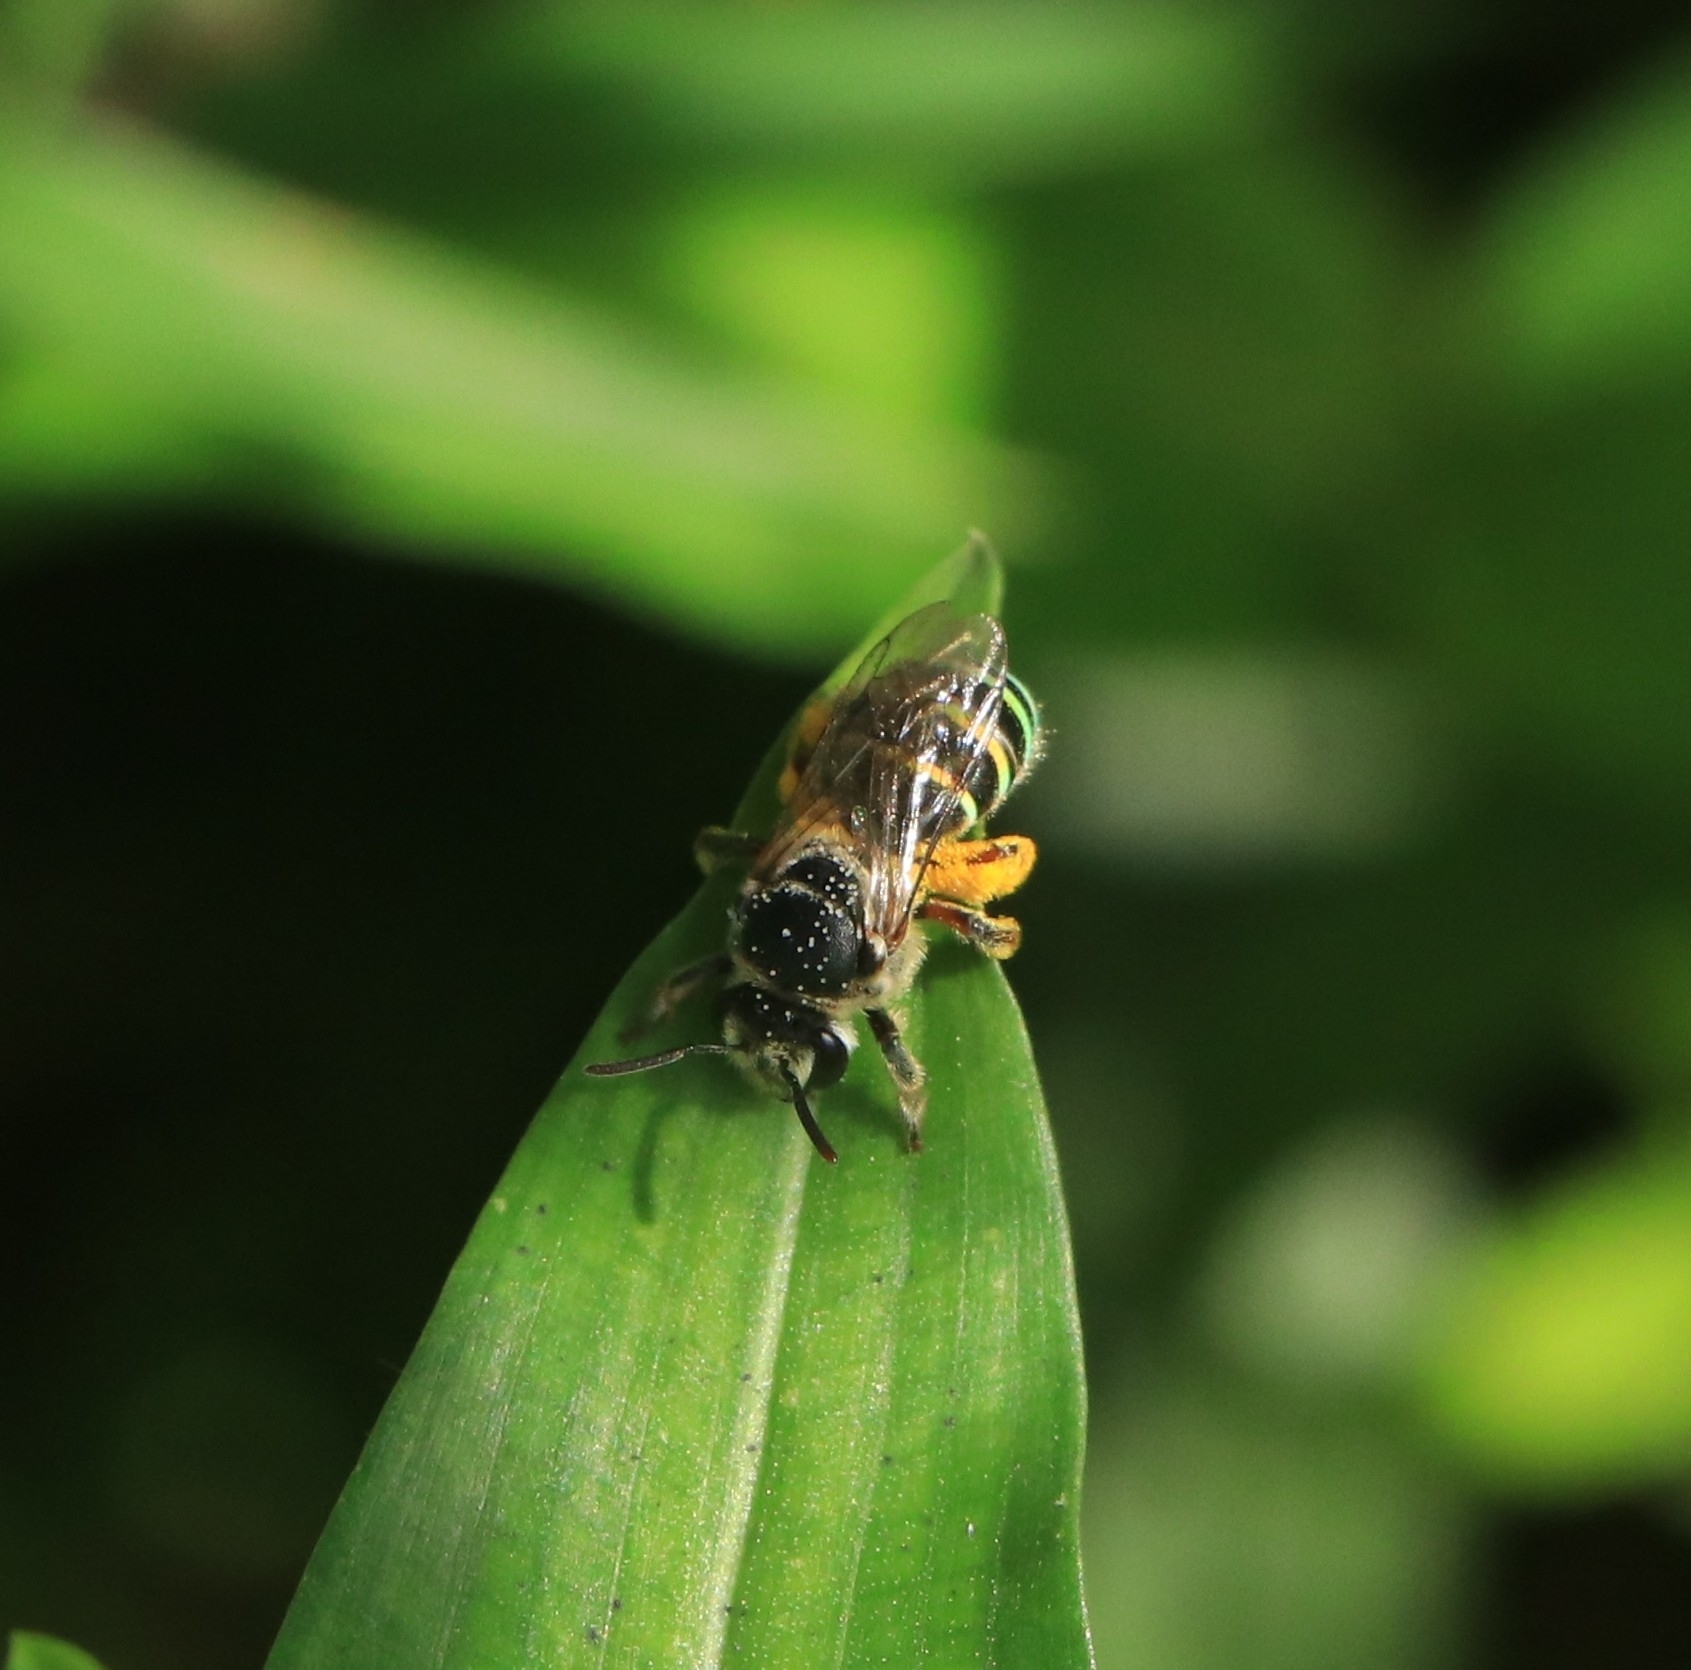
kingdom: Animalia
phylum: Arthropoda
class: Insecta
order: Hymenoptera
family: Halictidae
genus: Nomia
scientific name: Nomia westwoodi
